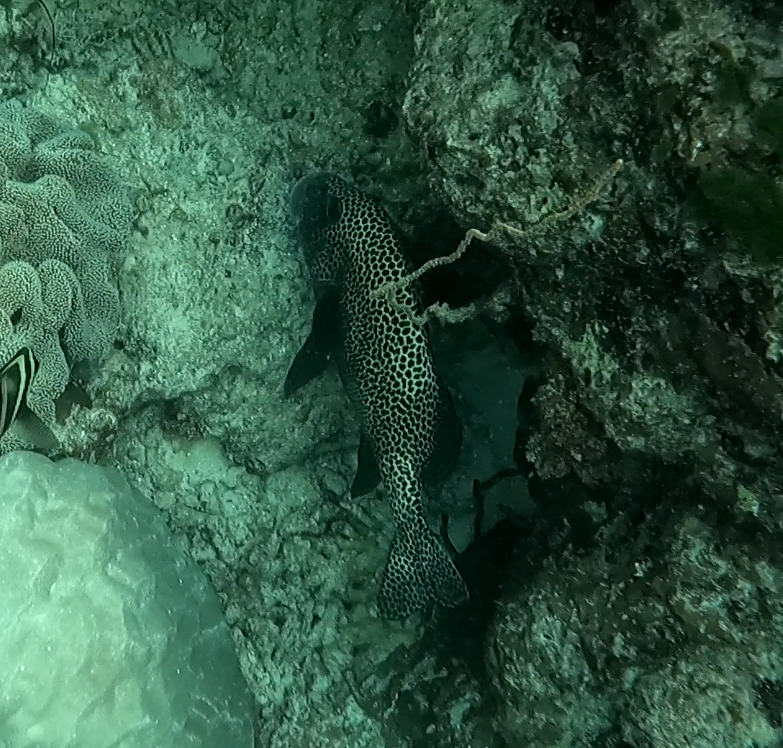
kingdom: Animalia
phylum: Chordata
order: Perciformes
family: Haemulidae
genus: Plectorhinchus
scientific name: Plectorhinchus chaetodonoides
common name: Harlequin sweetlips
